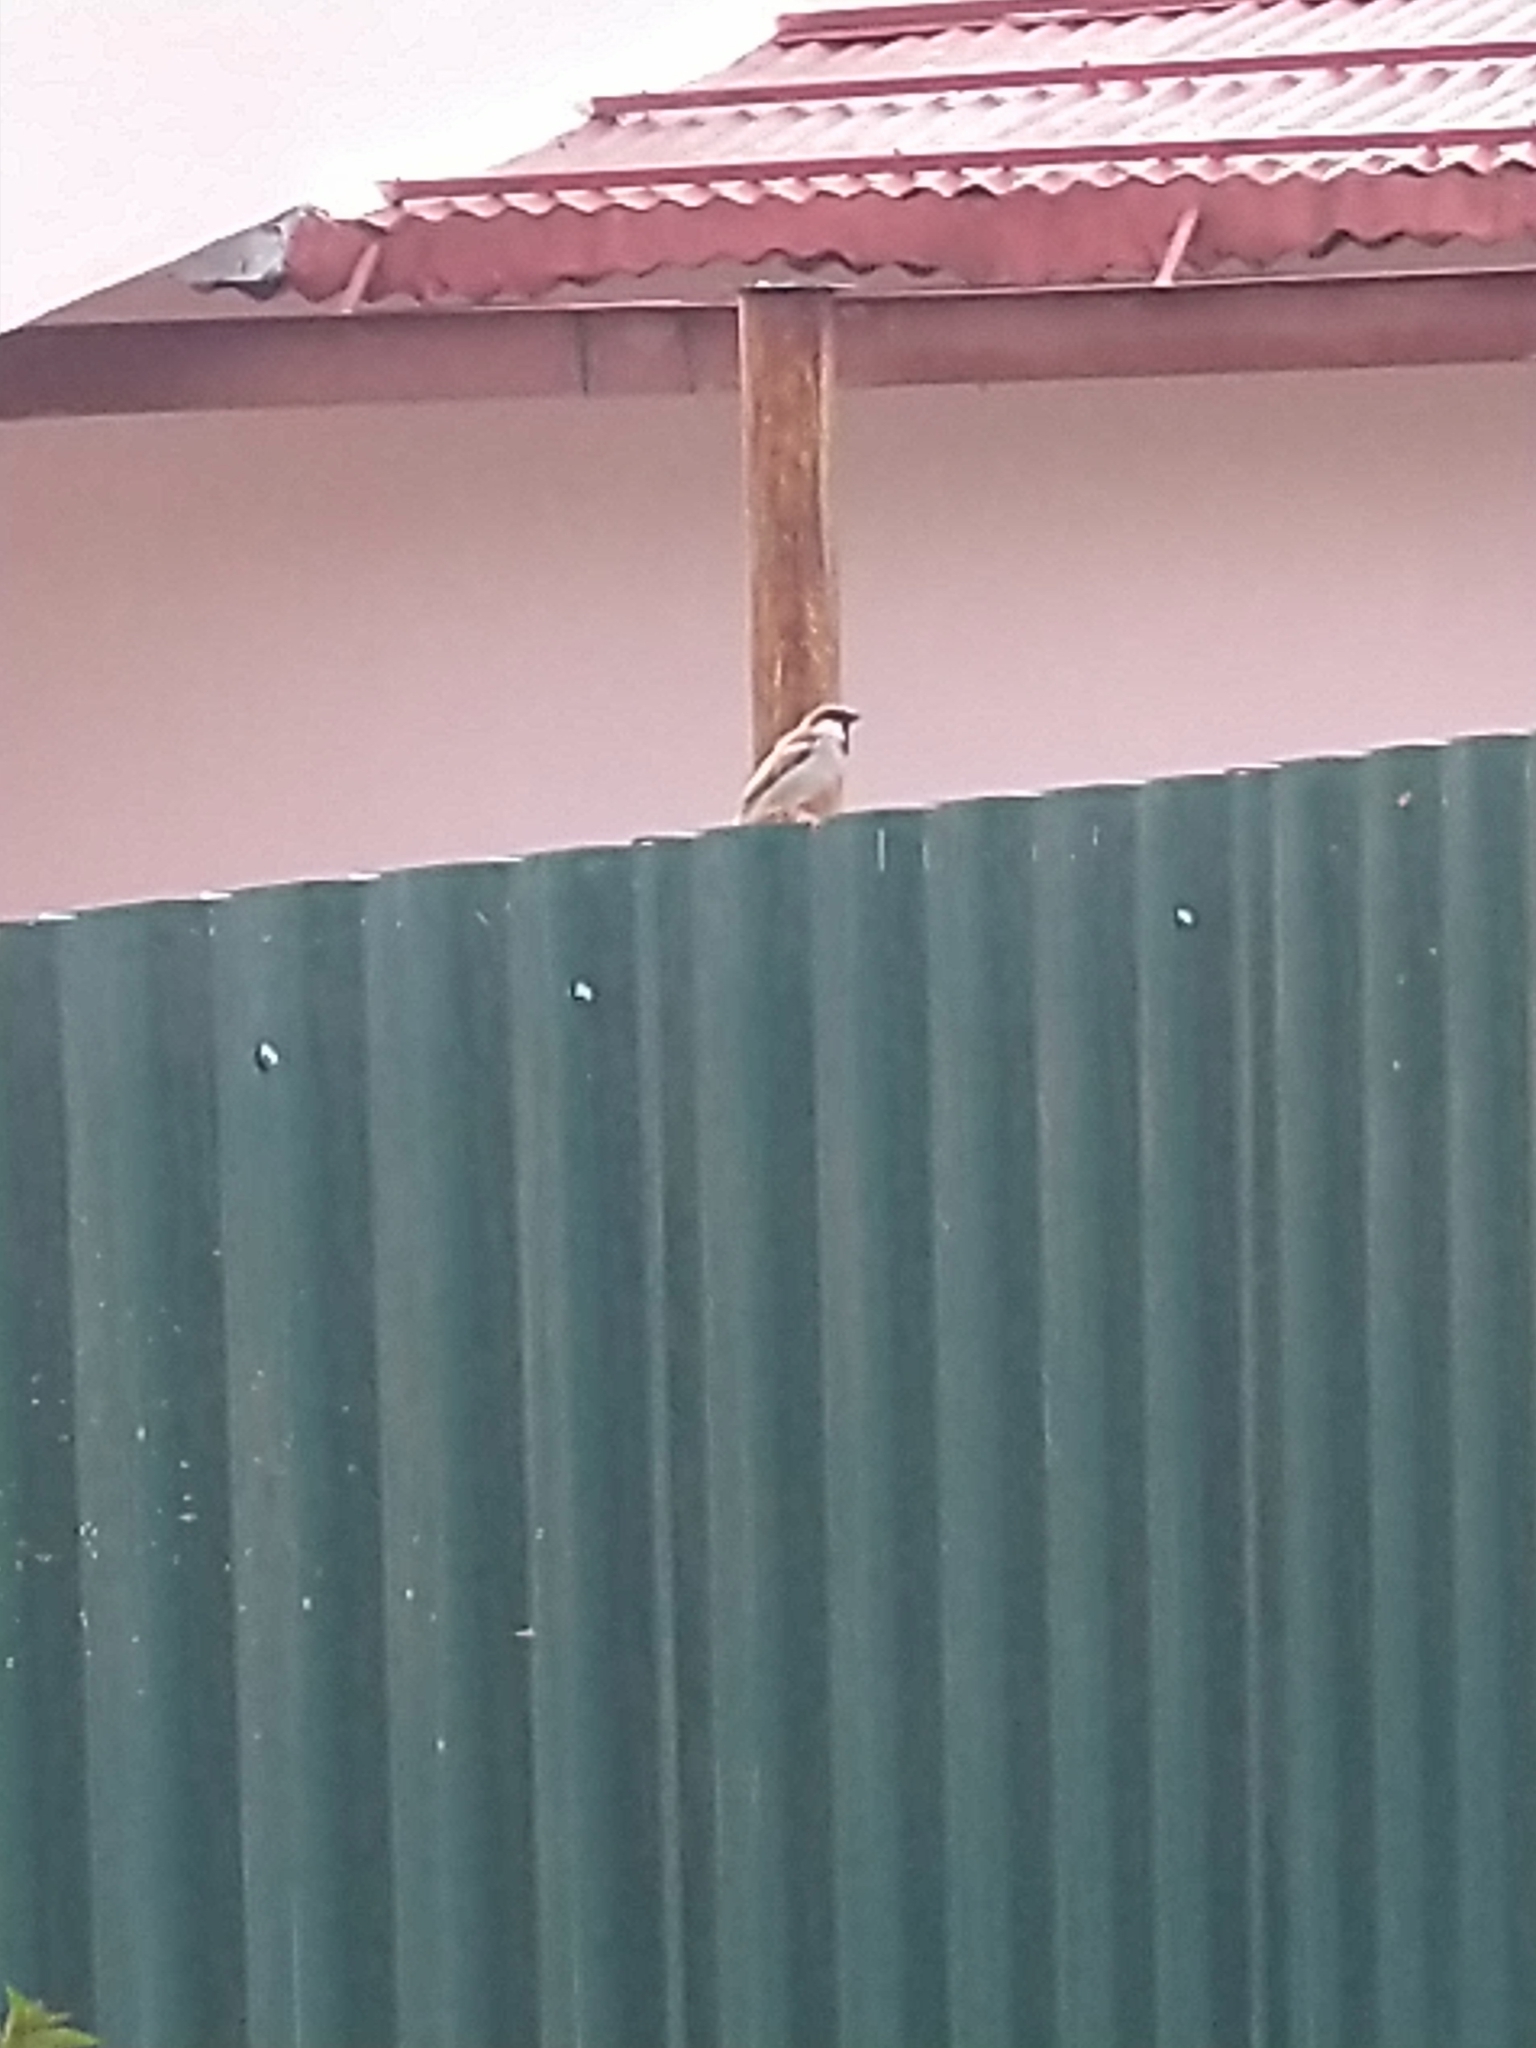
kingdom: Animalia
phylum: Chordata
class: Aves
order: Passeriformes
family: Passeridae
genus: Passer
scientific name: Passer domesticus
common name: House sparrow
